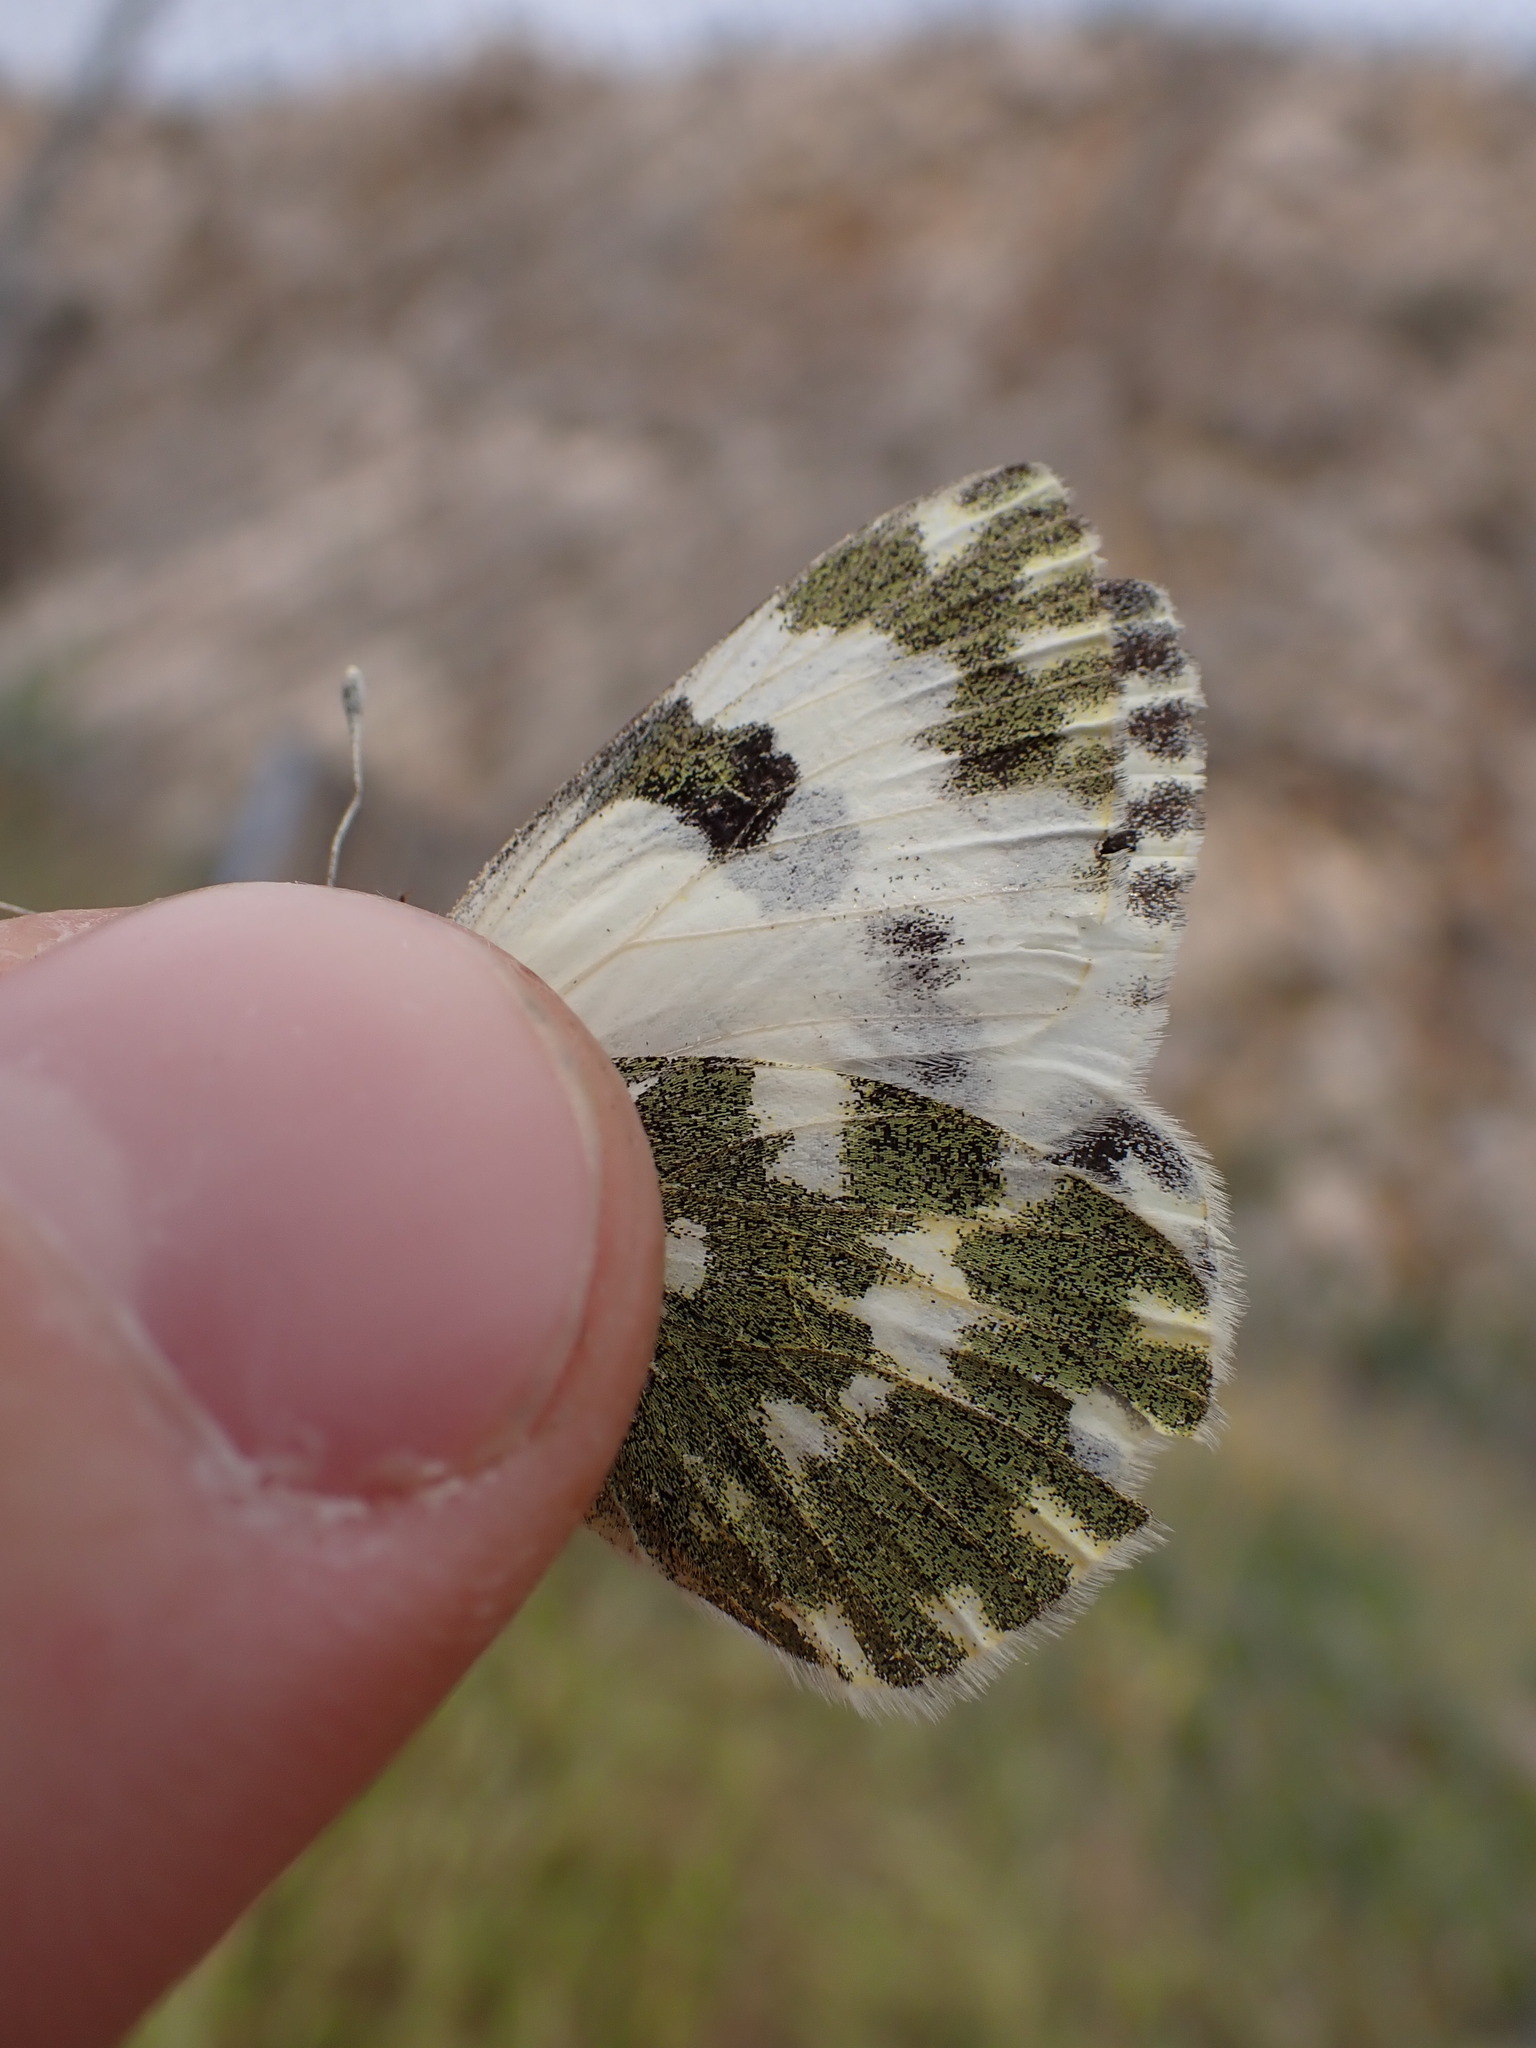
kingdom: Animalia
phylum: Arthropoda
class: Insecta
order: Lepidoptera
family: Pieridae
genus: Pontia
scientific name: Pontia daplidice
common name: Bath white
